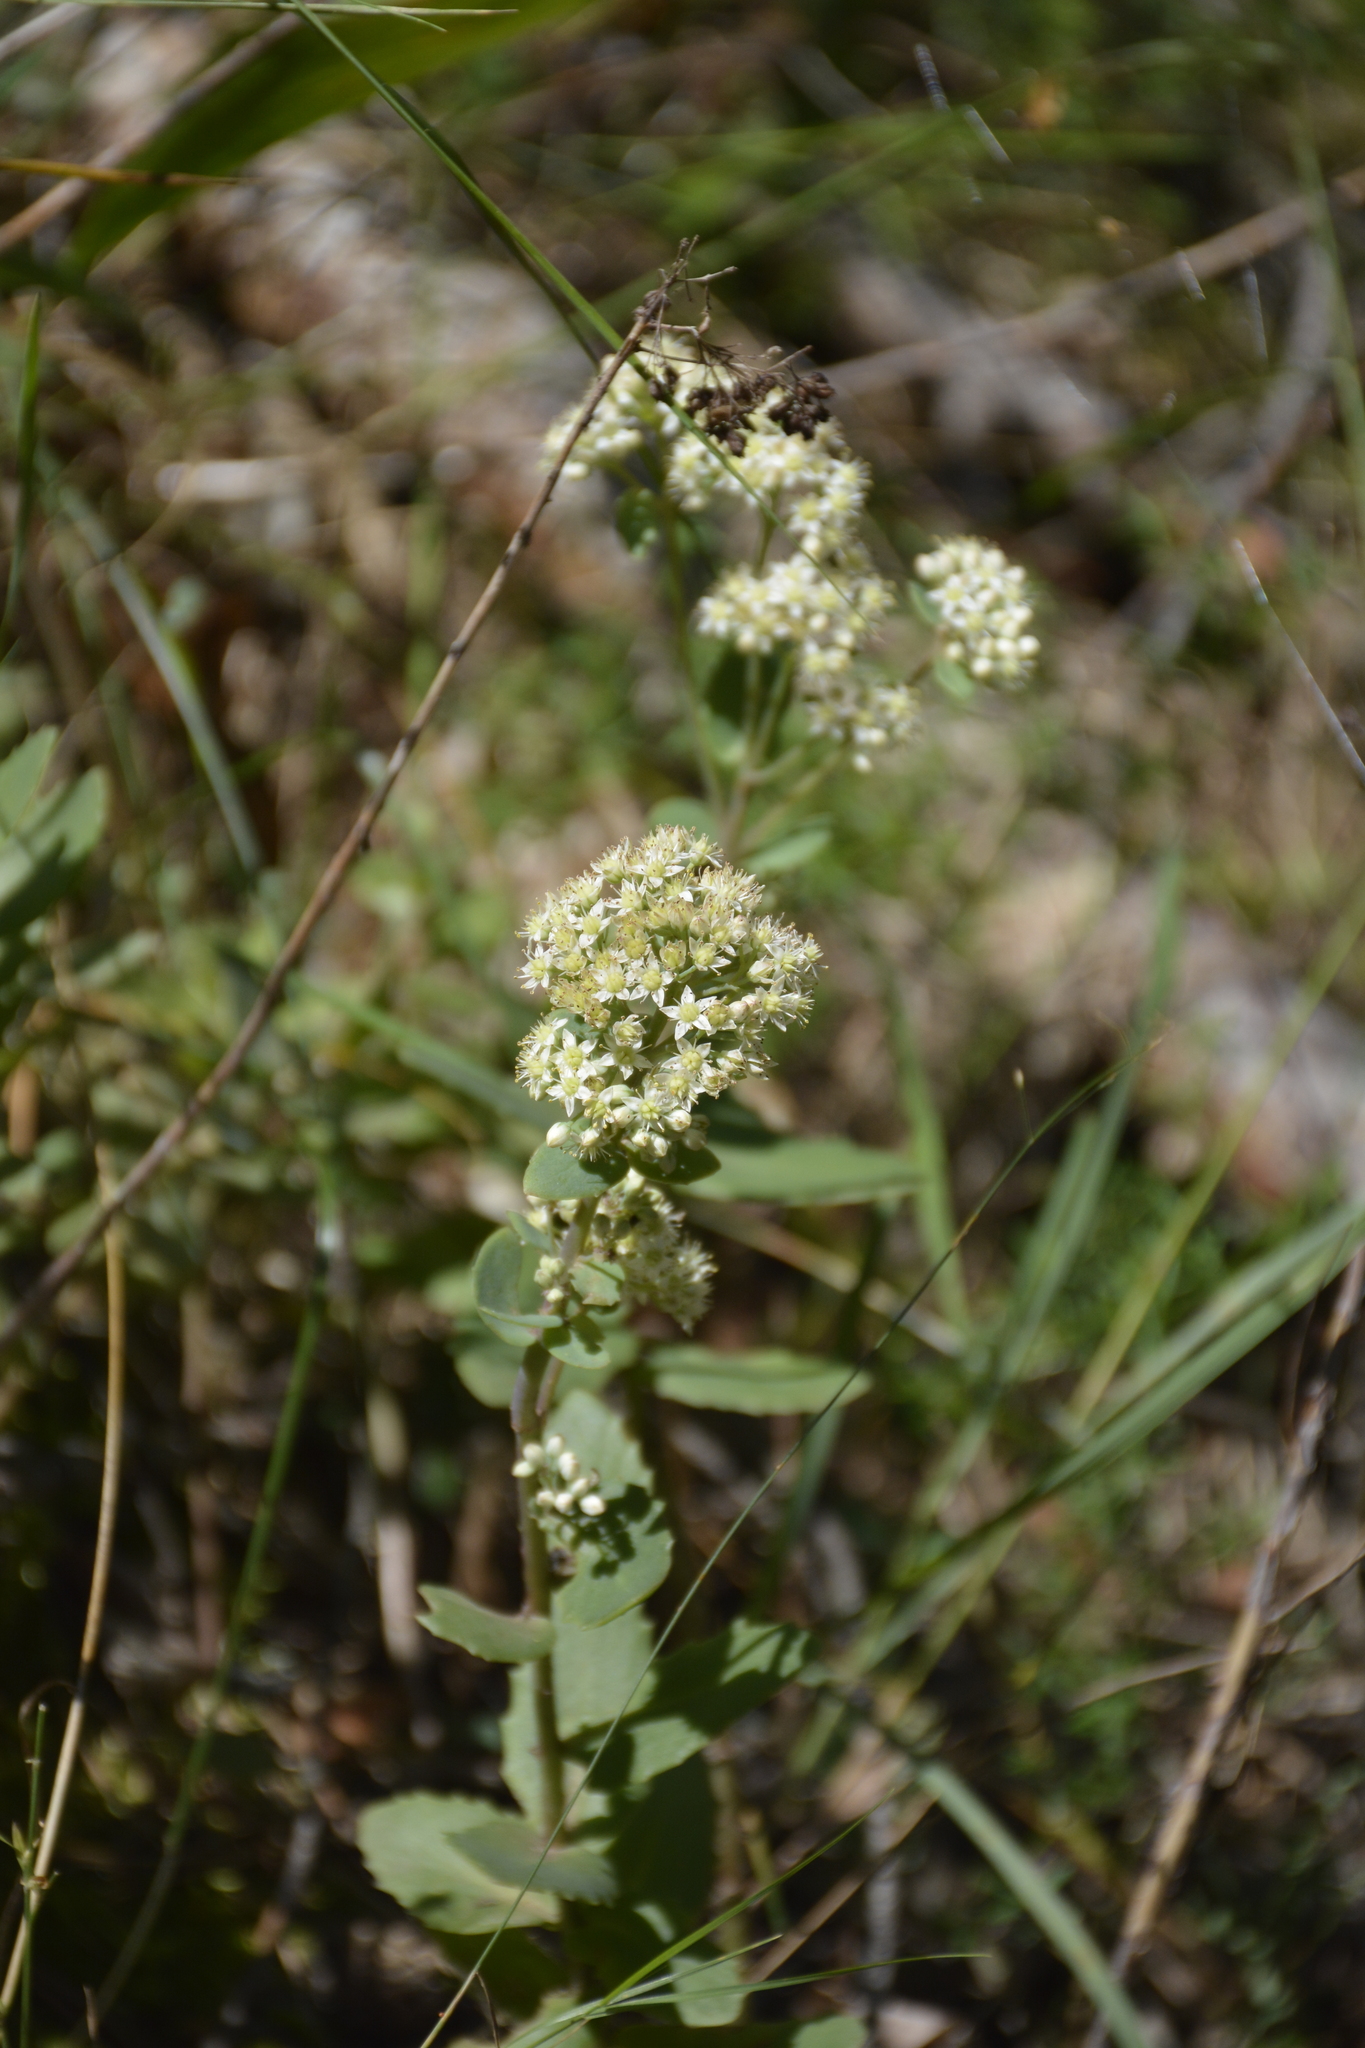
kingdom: Plantae
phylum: Tracheophyta
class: Magnoliopsida
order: Saxifragales
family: Crassulaceae
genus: Hylotelephium
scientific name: Hylotelephium maximum
